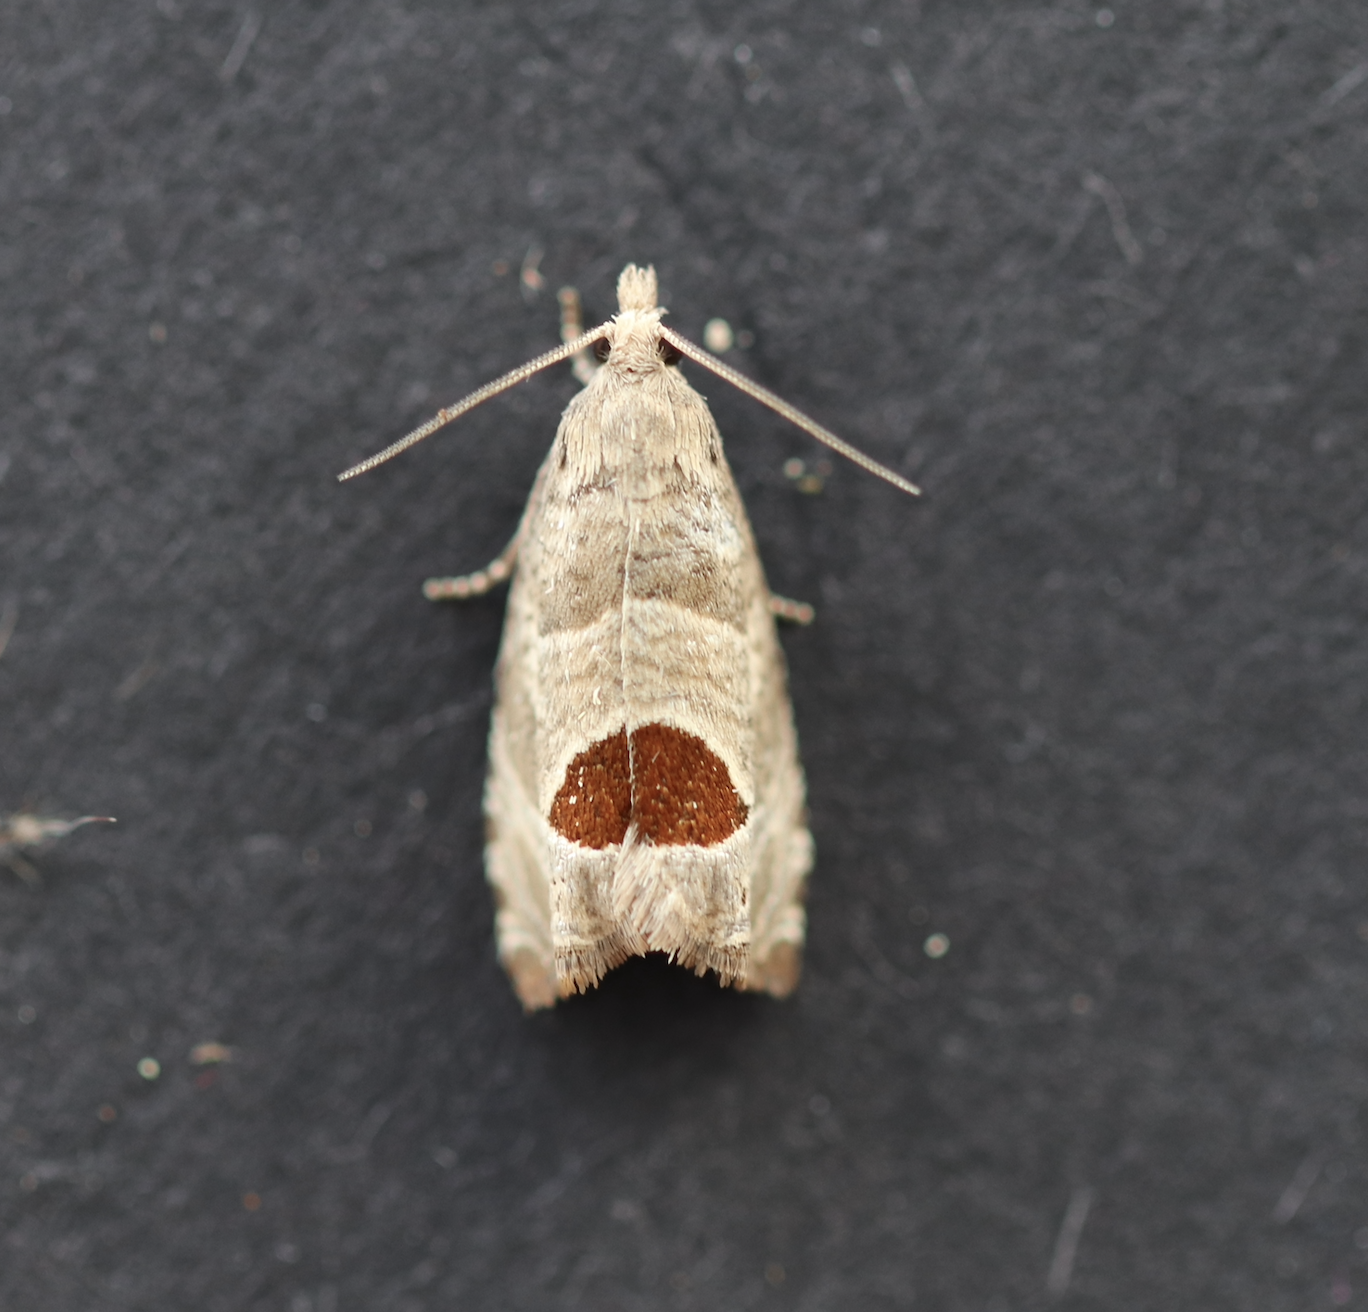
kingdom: Animalia
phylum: Arthropoda
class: Insecta
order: Lepidoptera
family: Tortricidae
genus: Notocelia
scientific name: Notocelia uddmanniana
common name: Bramble shoot moth
